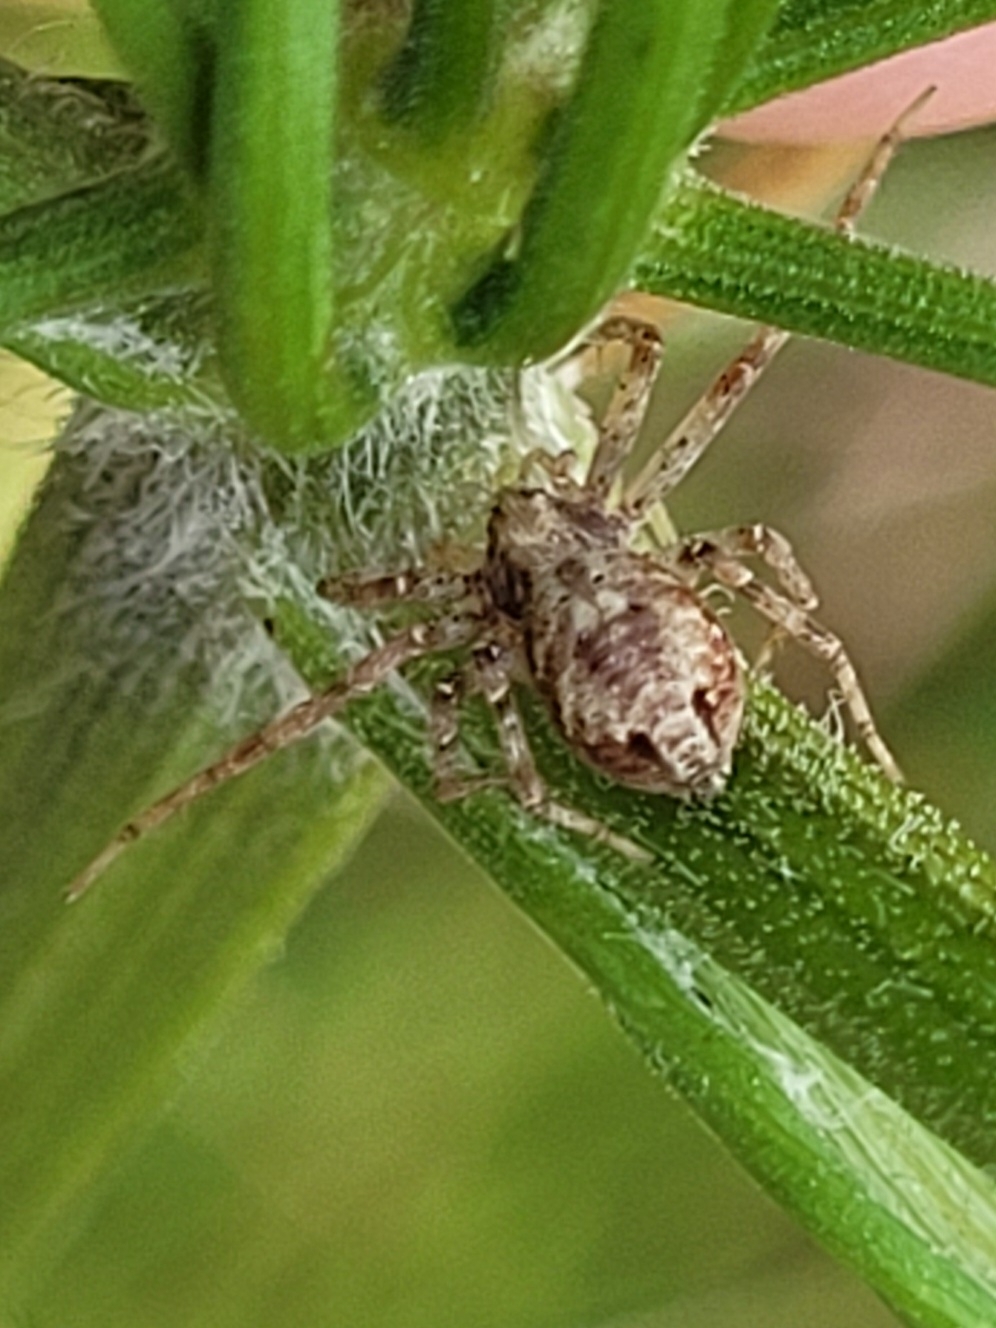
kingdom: Animalia
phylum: Arthropoda
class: Arachnida
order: Araneae
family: Philodromidae
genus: Philodromus
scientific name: Philodromus
